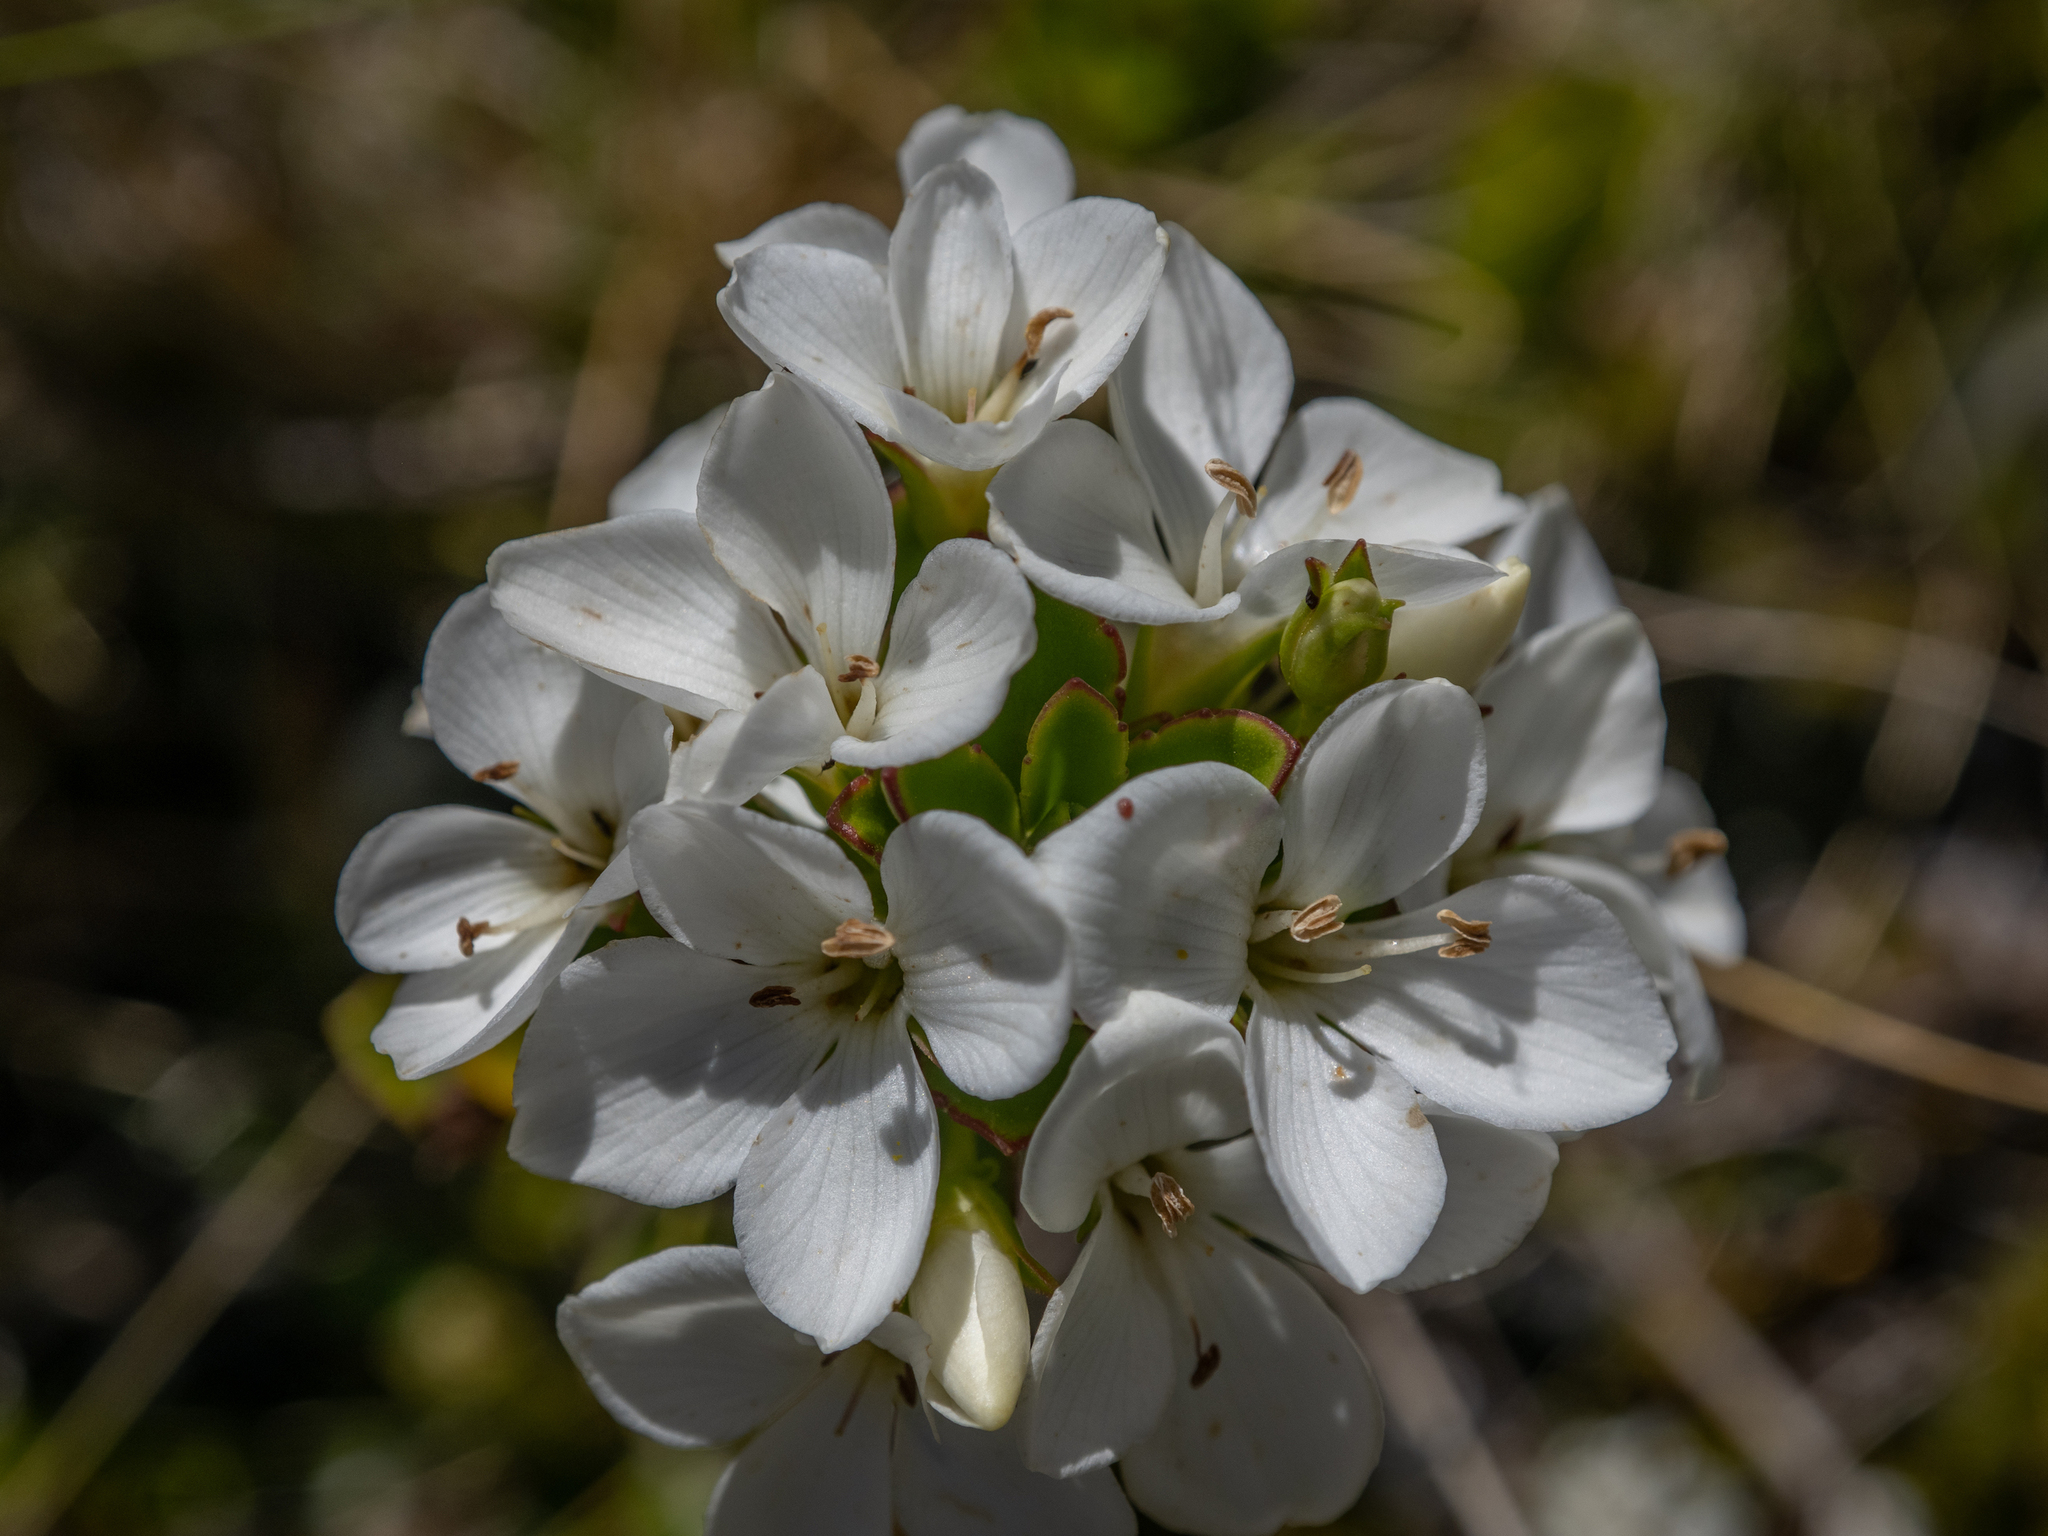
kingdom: Plantae
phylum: Tracheophyta
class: Magnoliopsida
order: Lamiales
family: Plantaginaceae
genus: Veronica
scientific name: Veronica macrantha
